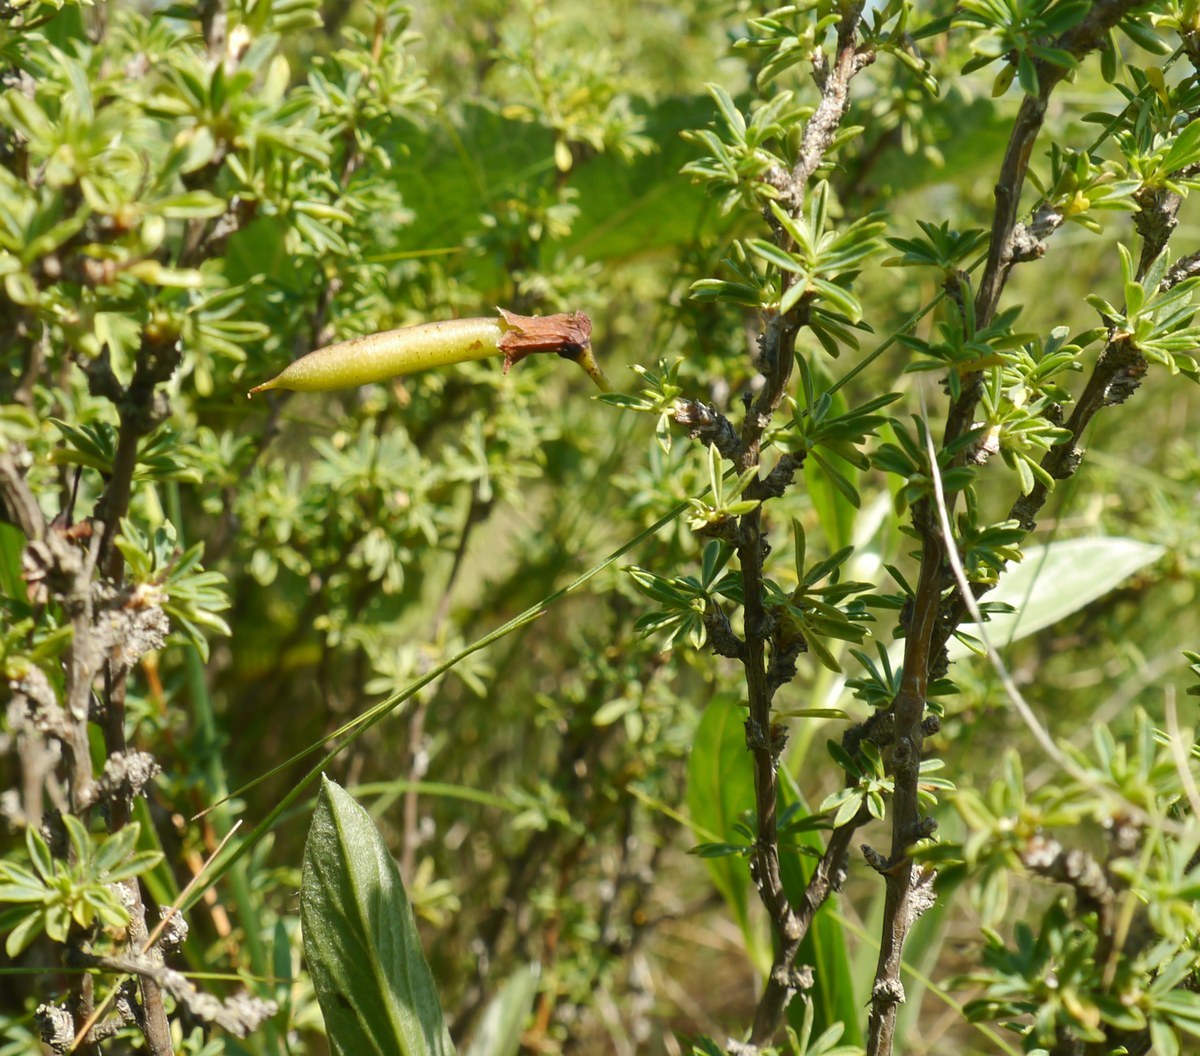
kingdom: Plantae
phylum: Tracheophyta
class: Magnoliopsida
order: Fabales
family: Fabaceae
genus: Caragana
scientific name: Caragana scythica
